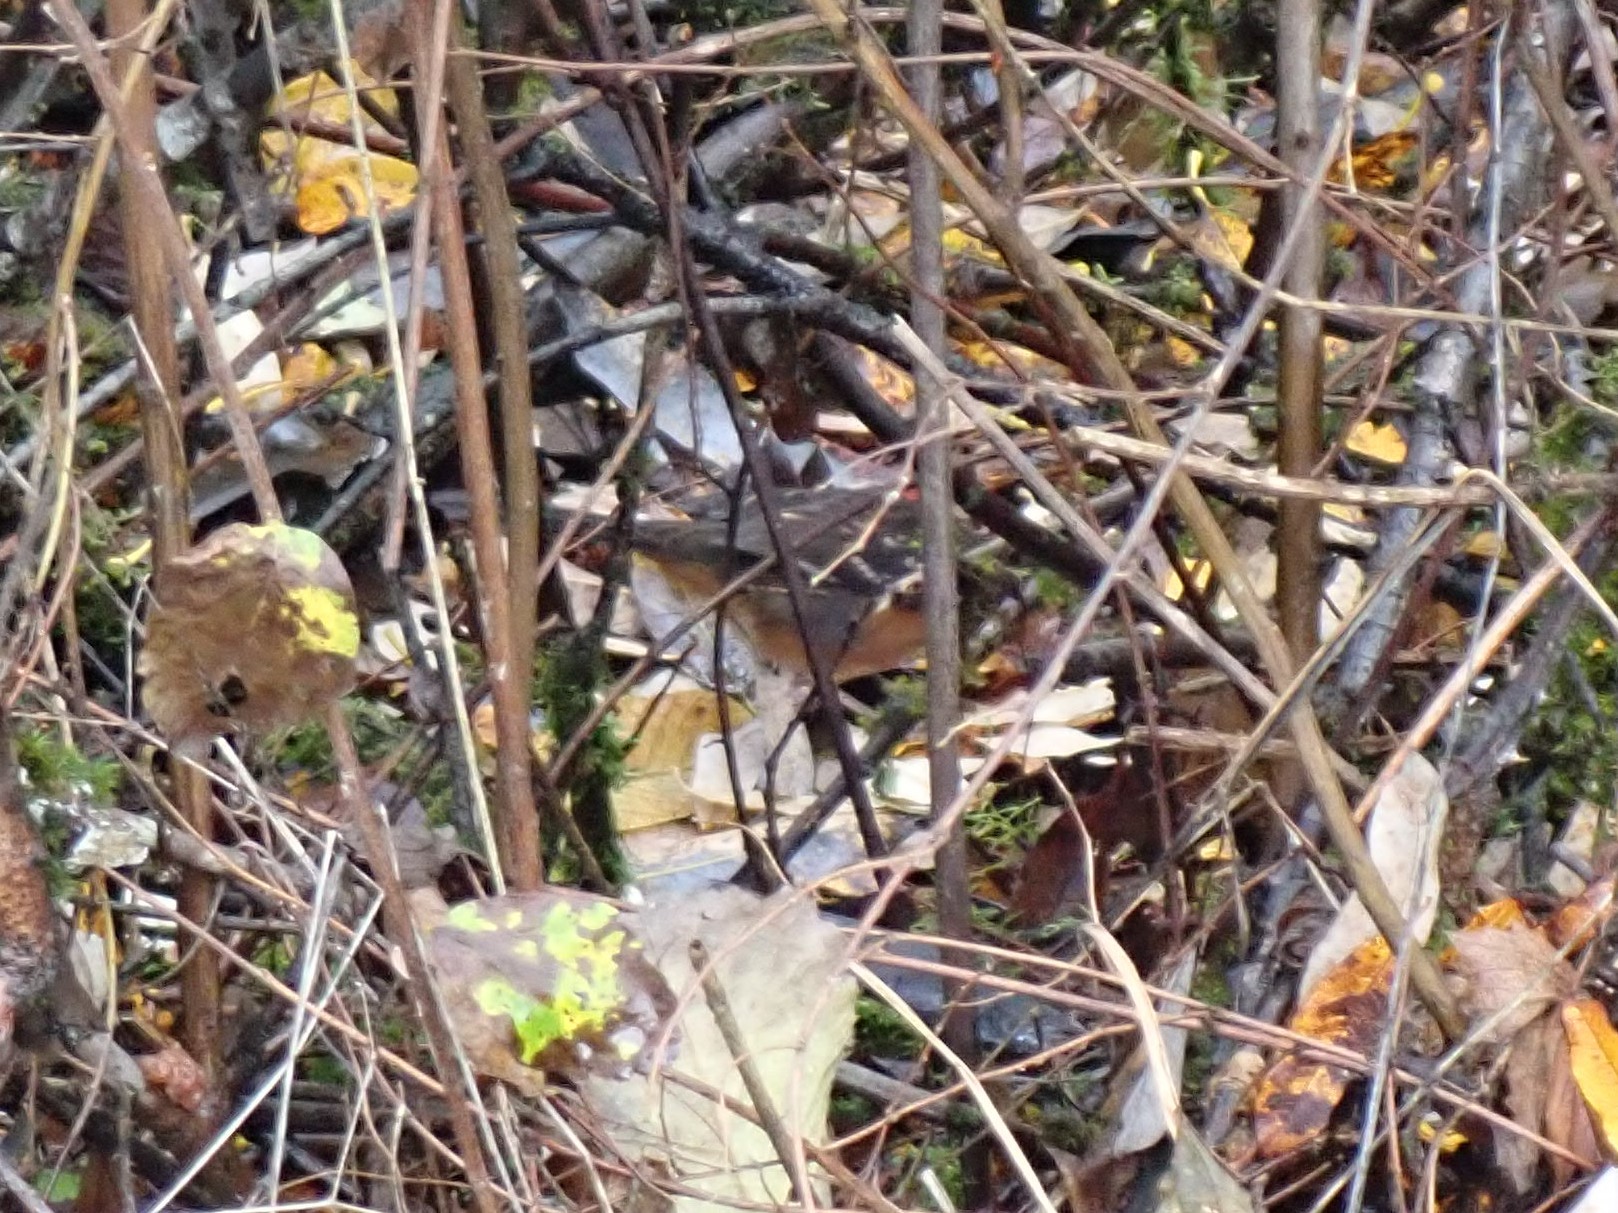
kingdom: Animalia
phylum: Chordata
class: Aves
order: Passeriformes
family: Passerellidae
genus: Pipilo
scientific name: Pipilo maculatus
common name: Spotted towhee
